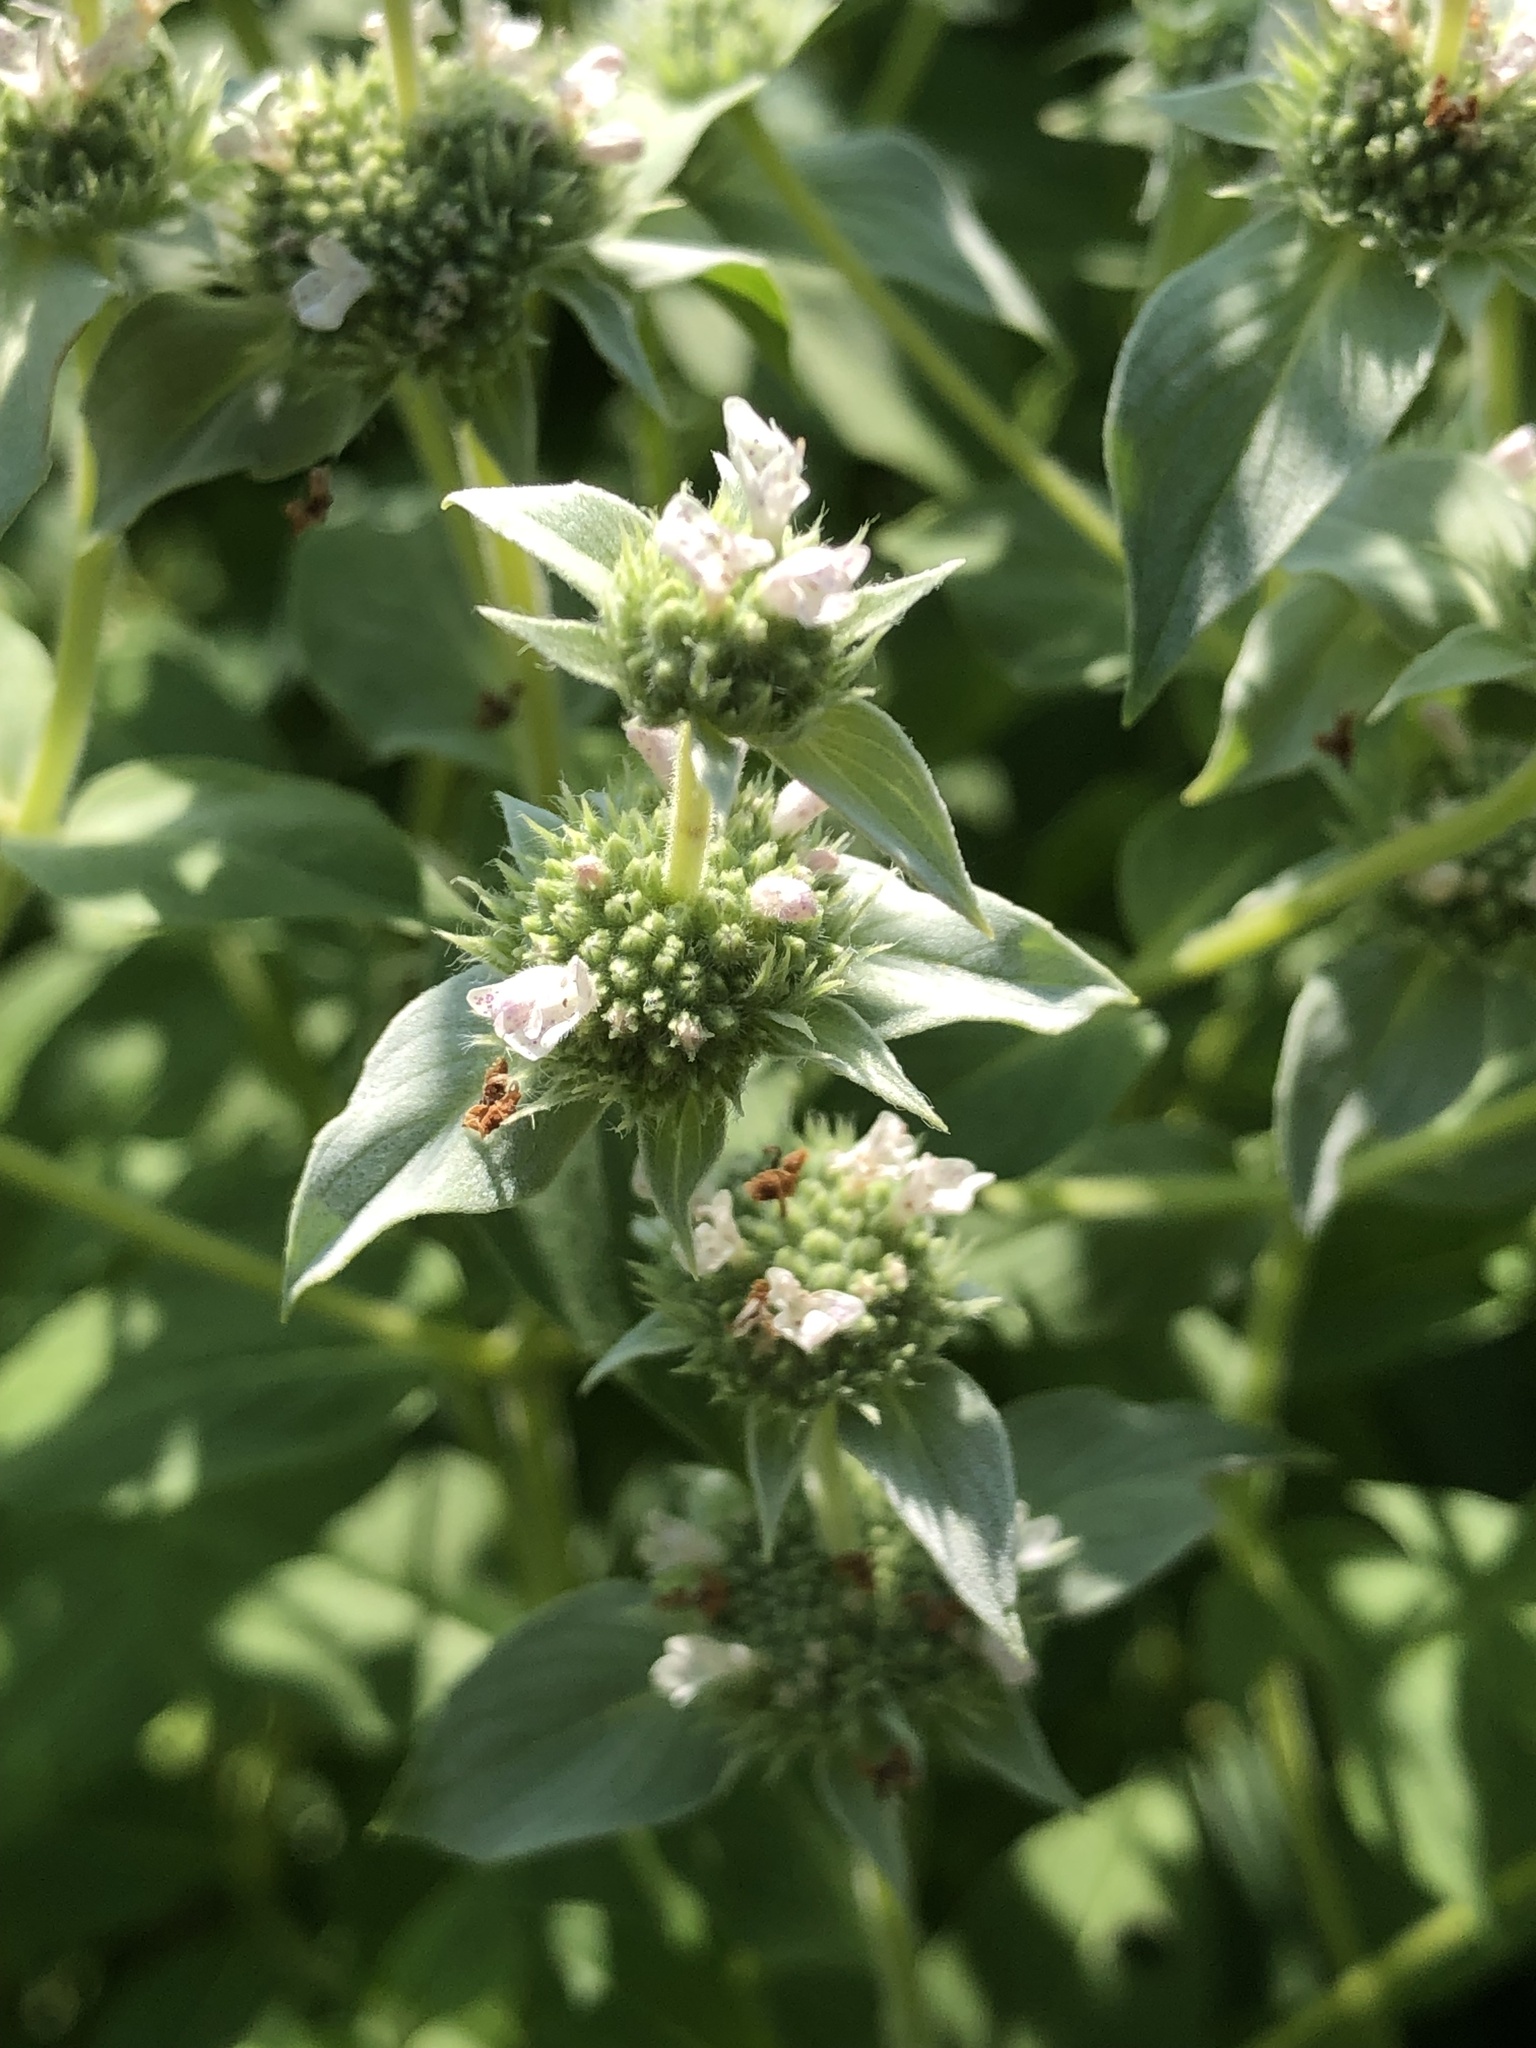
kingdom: Plantae
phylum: Tracheophyta
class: Magnoliopsida
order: Lamiales
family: Lamiaceae
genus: Pycnanthemum
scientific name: Pycnanthemum incanum
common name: Hoary mountain-mint
